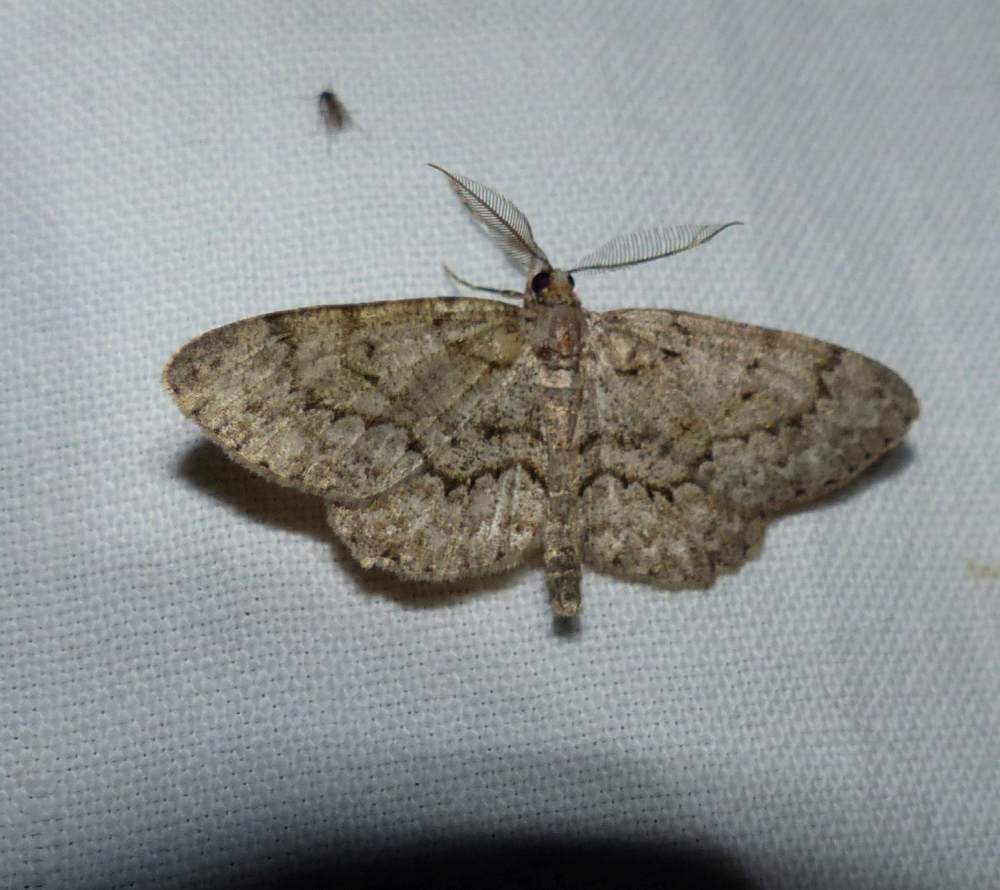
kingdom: Animalia
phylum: Arthropoda
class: Insecta
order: Lepidoptera
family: Geometridae
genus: Protoboarmia
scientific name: Protoboarmia porcelaria
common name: Porcelain gray
